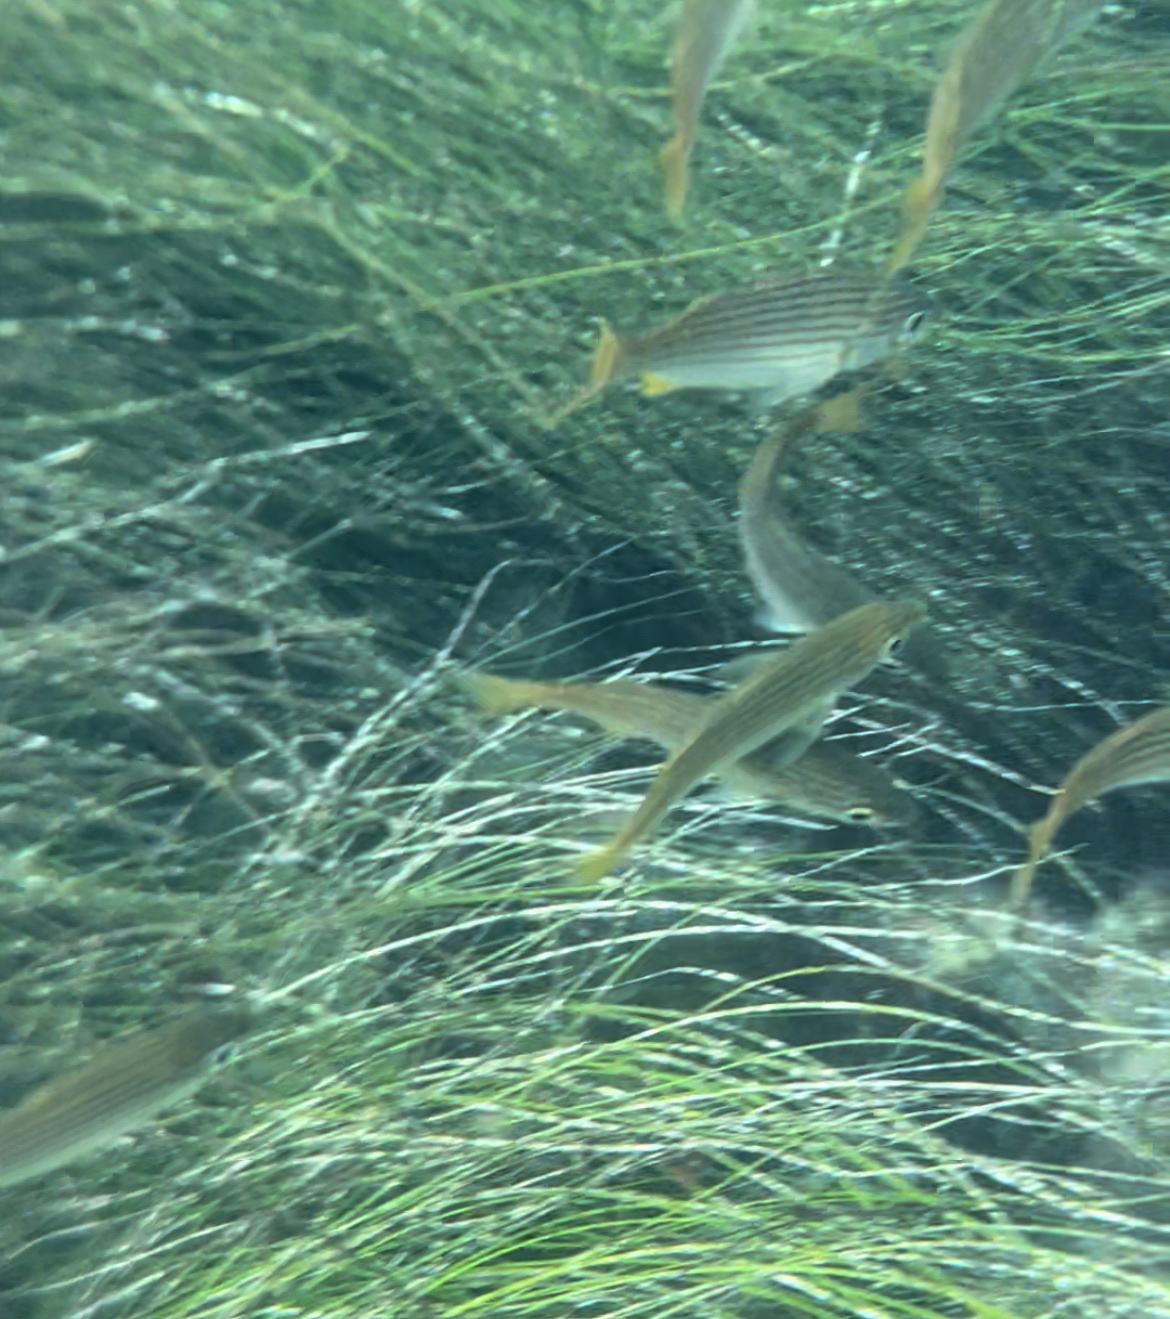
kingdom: Animalia
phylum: Chordata
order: Perciformes
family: Haemulidae
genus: Haemulon
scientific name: Haemulon californiensis
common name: Californian salema
